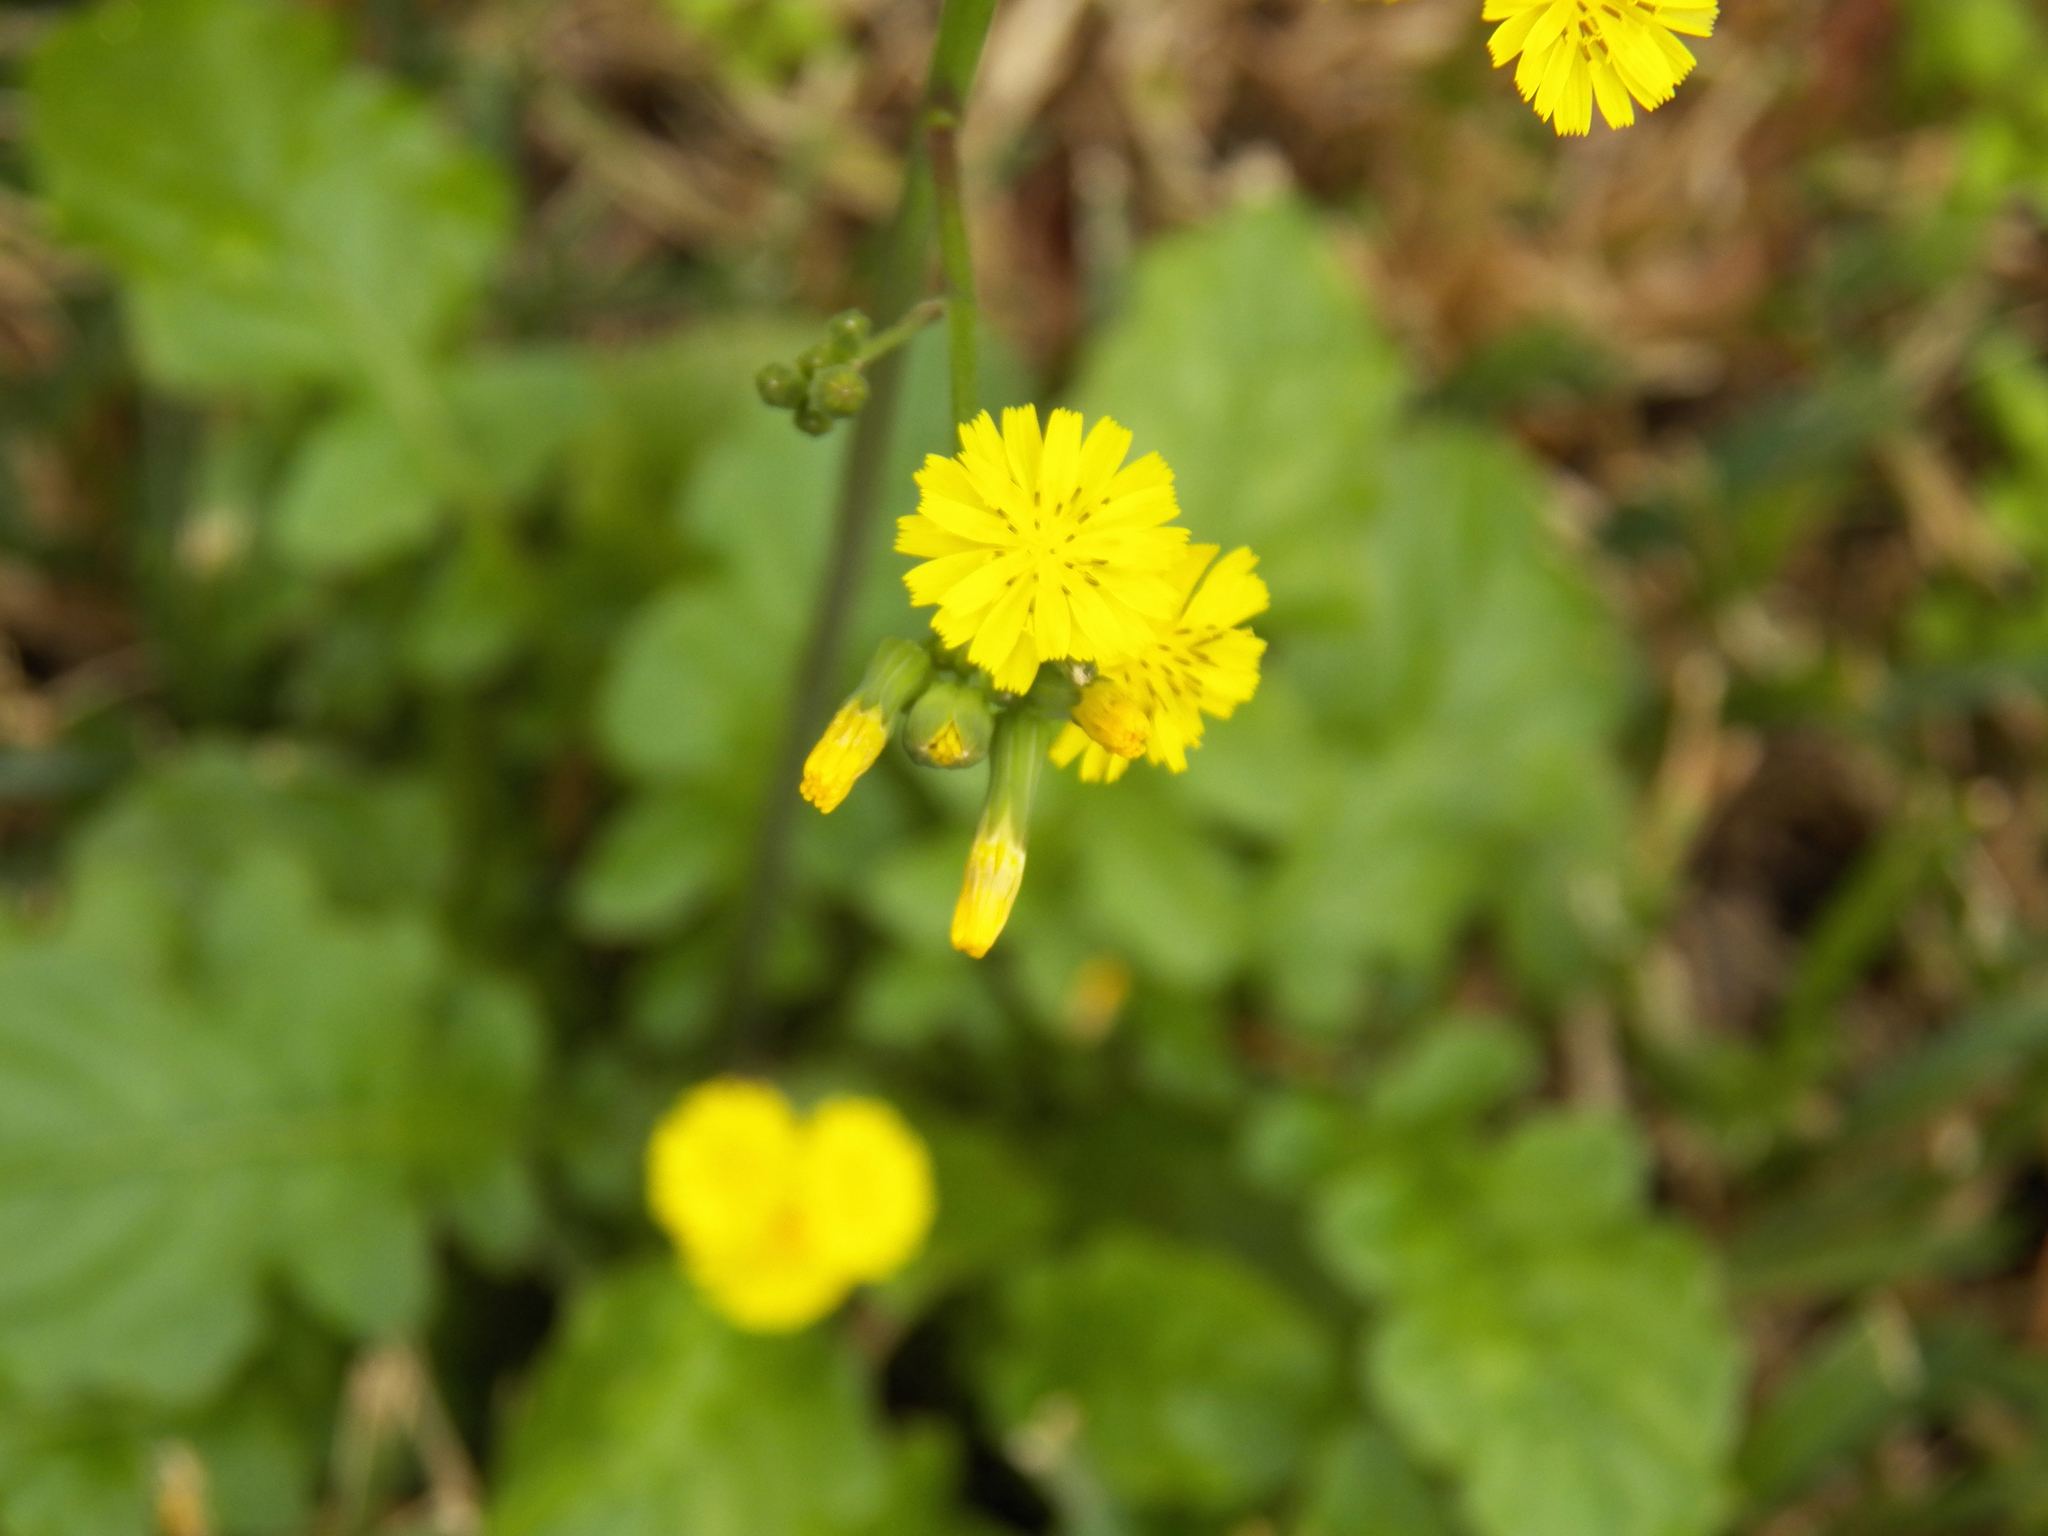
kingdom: Plantae
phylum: Tracheophyta
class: Magnoliopsida
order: Asterales
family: Asteraceae
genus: Youngia
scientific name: Youngia japonica
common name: Oriental false hawksbeard
